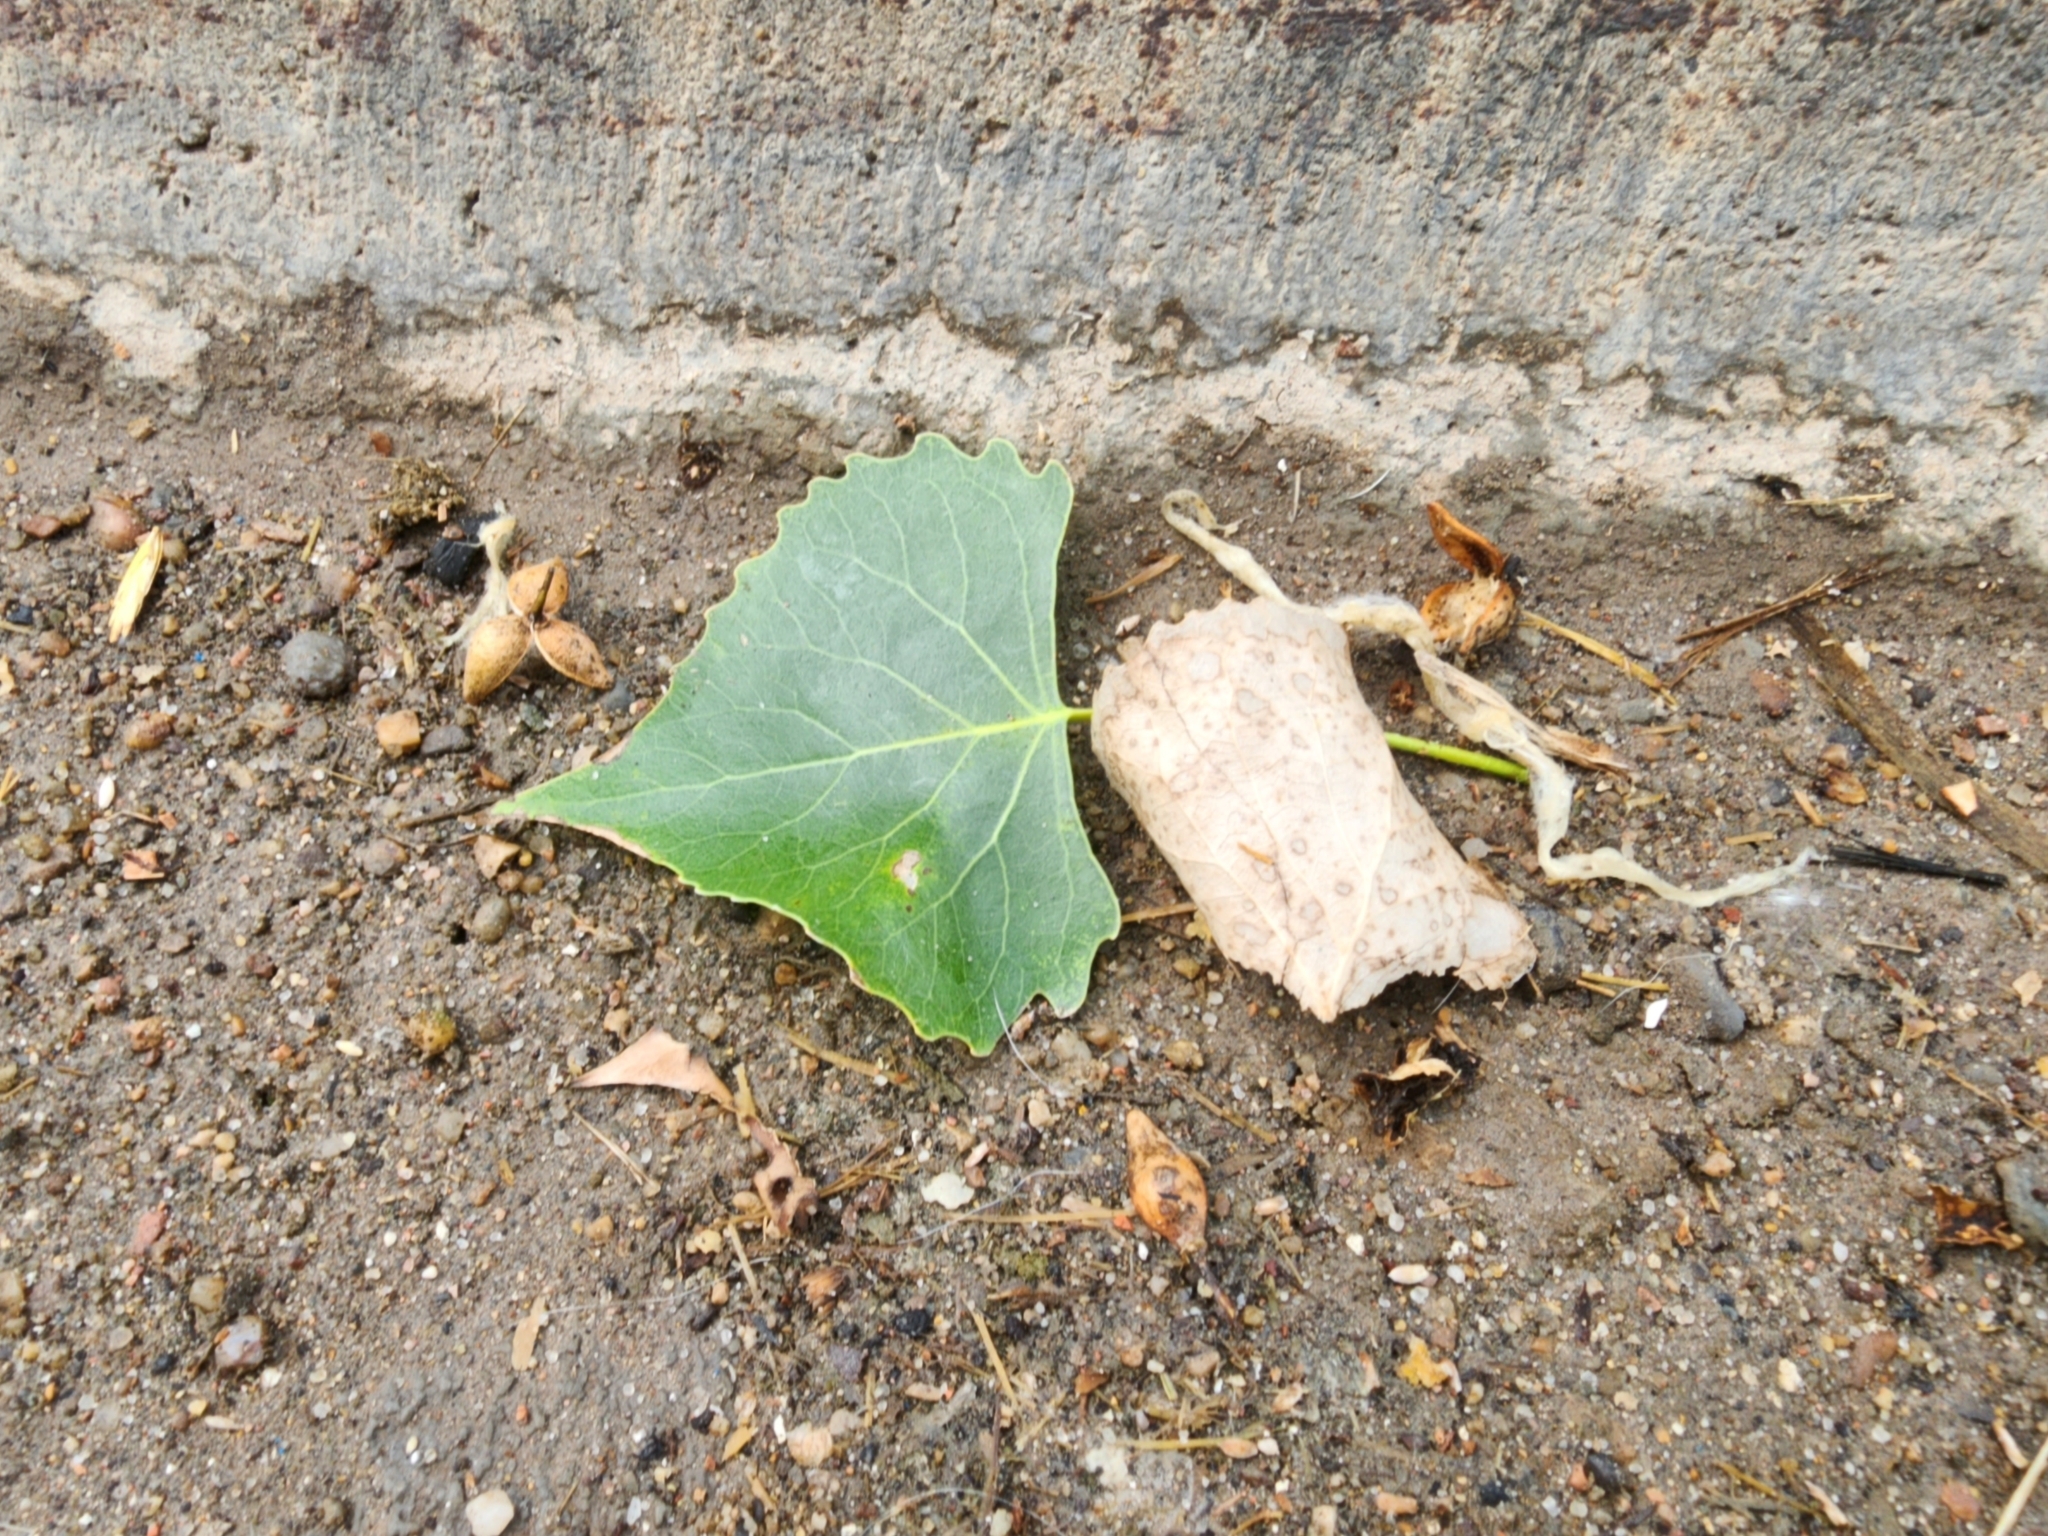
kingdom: Plantae
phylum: Tracheophyta
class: Magnoliopsida
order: Malpighiales
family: Salicaceae
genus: Populus
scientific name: Populus deltoides
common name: Eastern cottonwood
